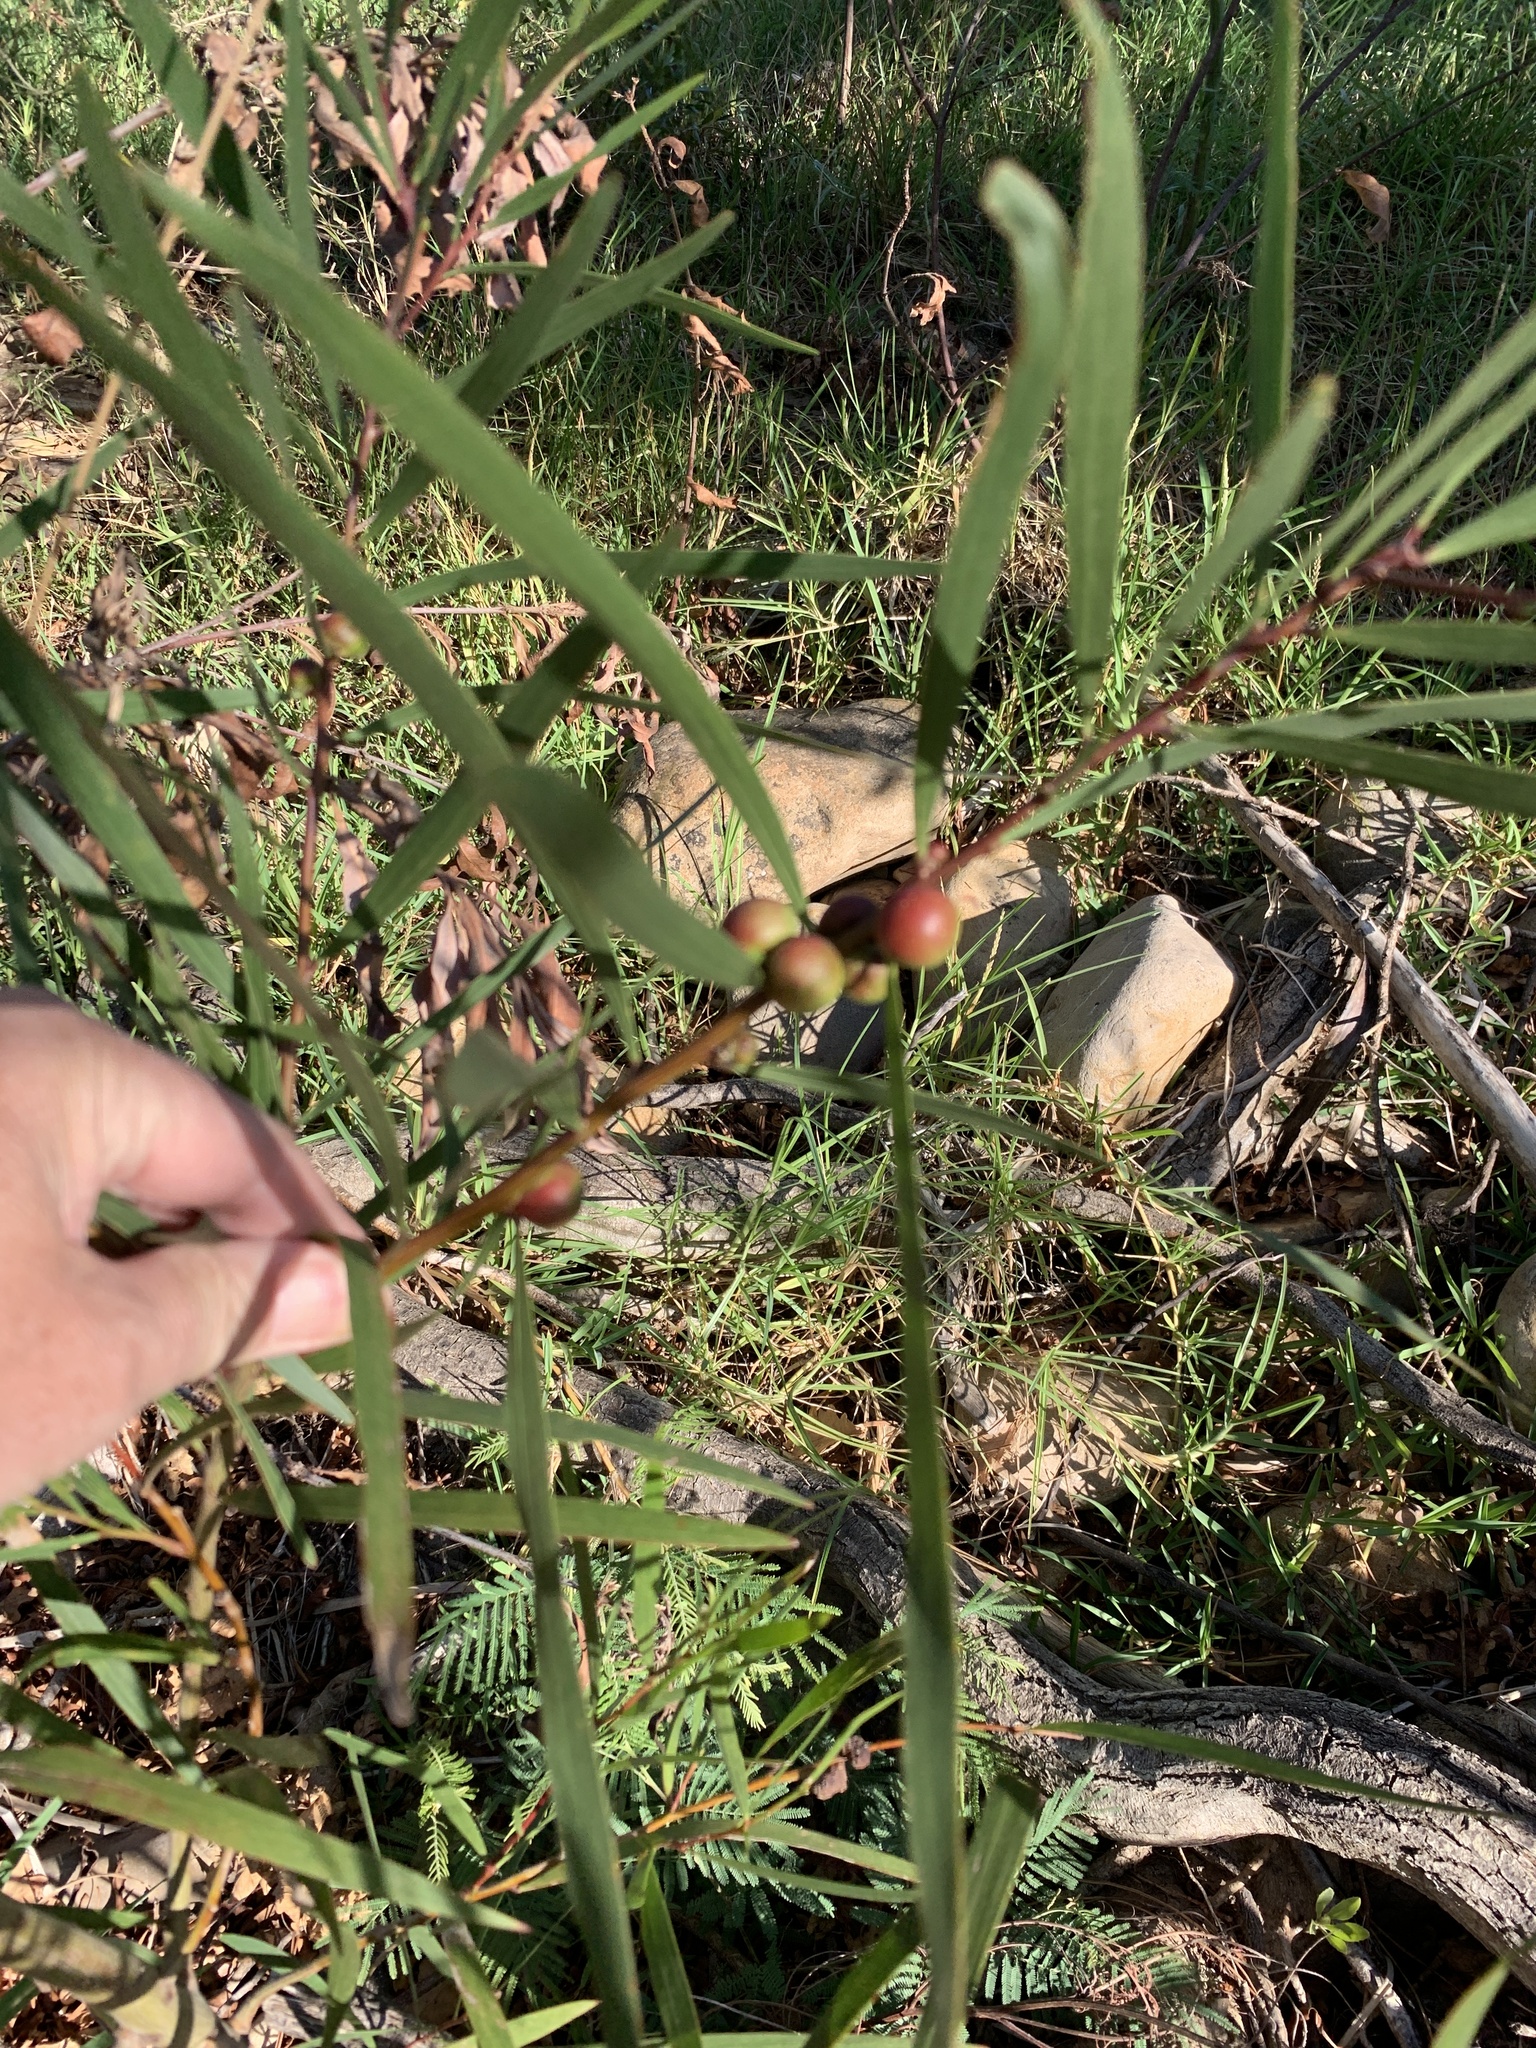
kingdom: Plantae
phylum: Tracheophyta
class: Magnoliopsida
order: Fabales
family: Fabaceae
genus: Acacia
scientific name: Acacia longifolia
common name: Sydney golden wattle
